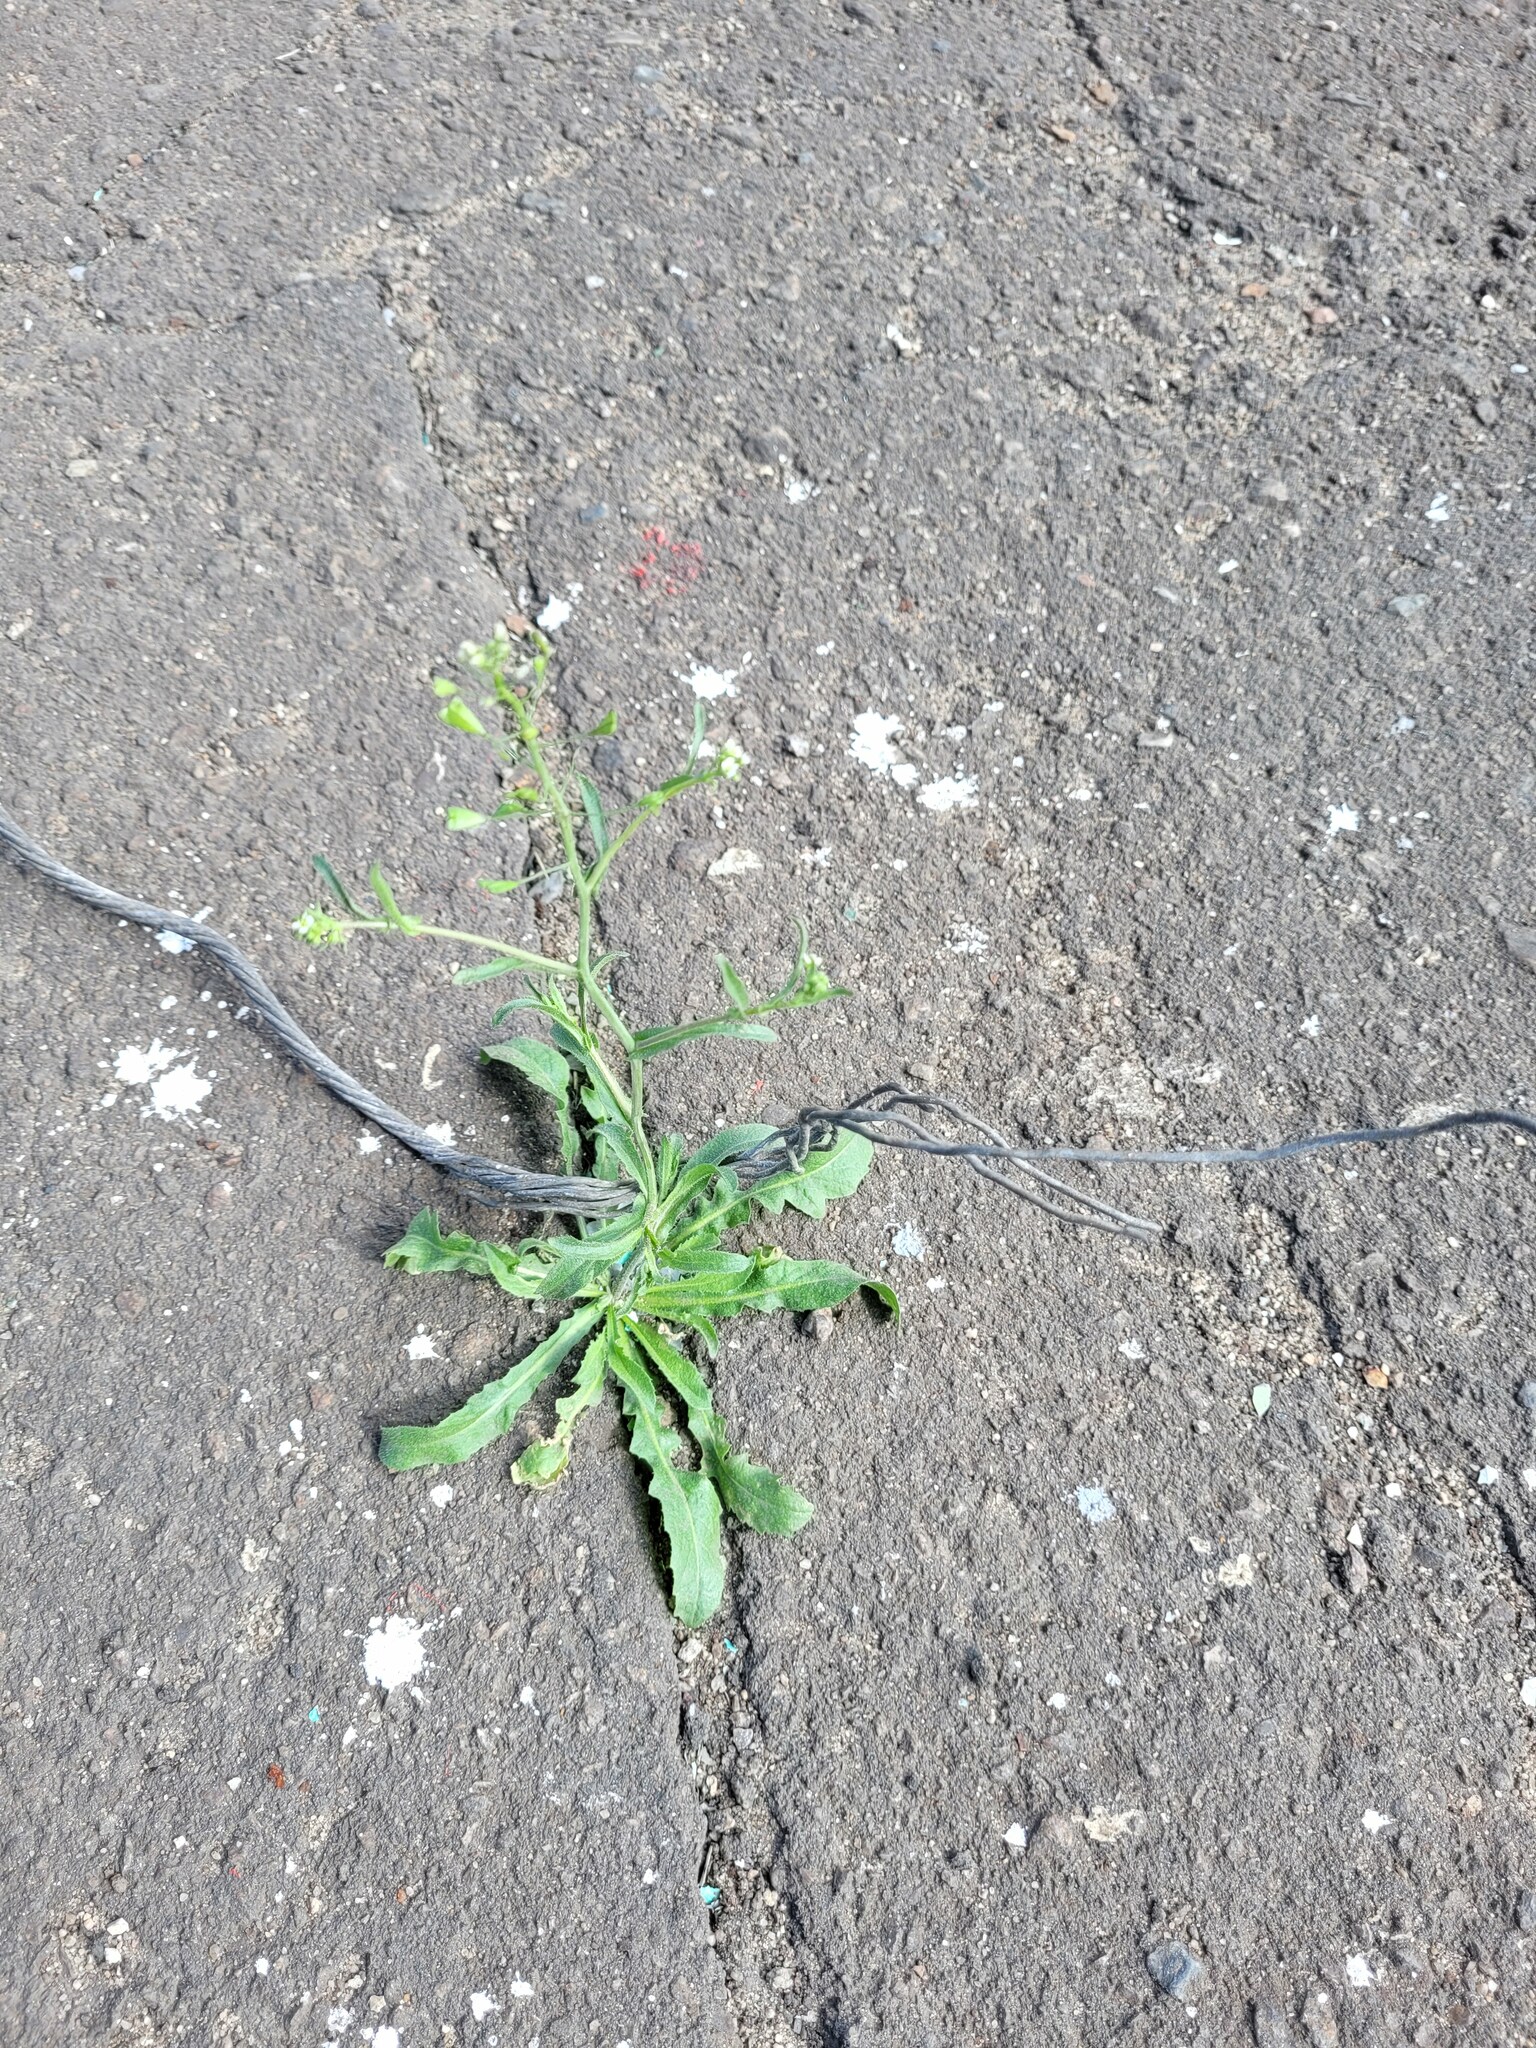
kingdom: Plantae
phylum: Tracheophyta
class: Magnoliopsida
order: Brassicales
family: Brassicaceae
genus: Capsella
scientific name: Capsella bursa-pastoris
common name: Shepherd's purse
